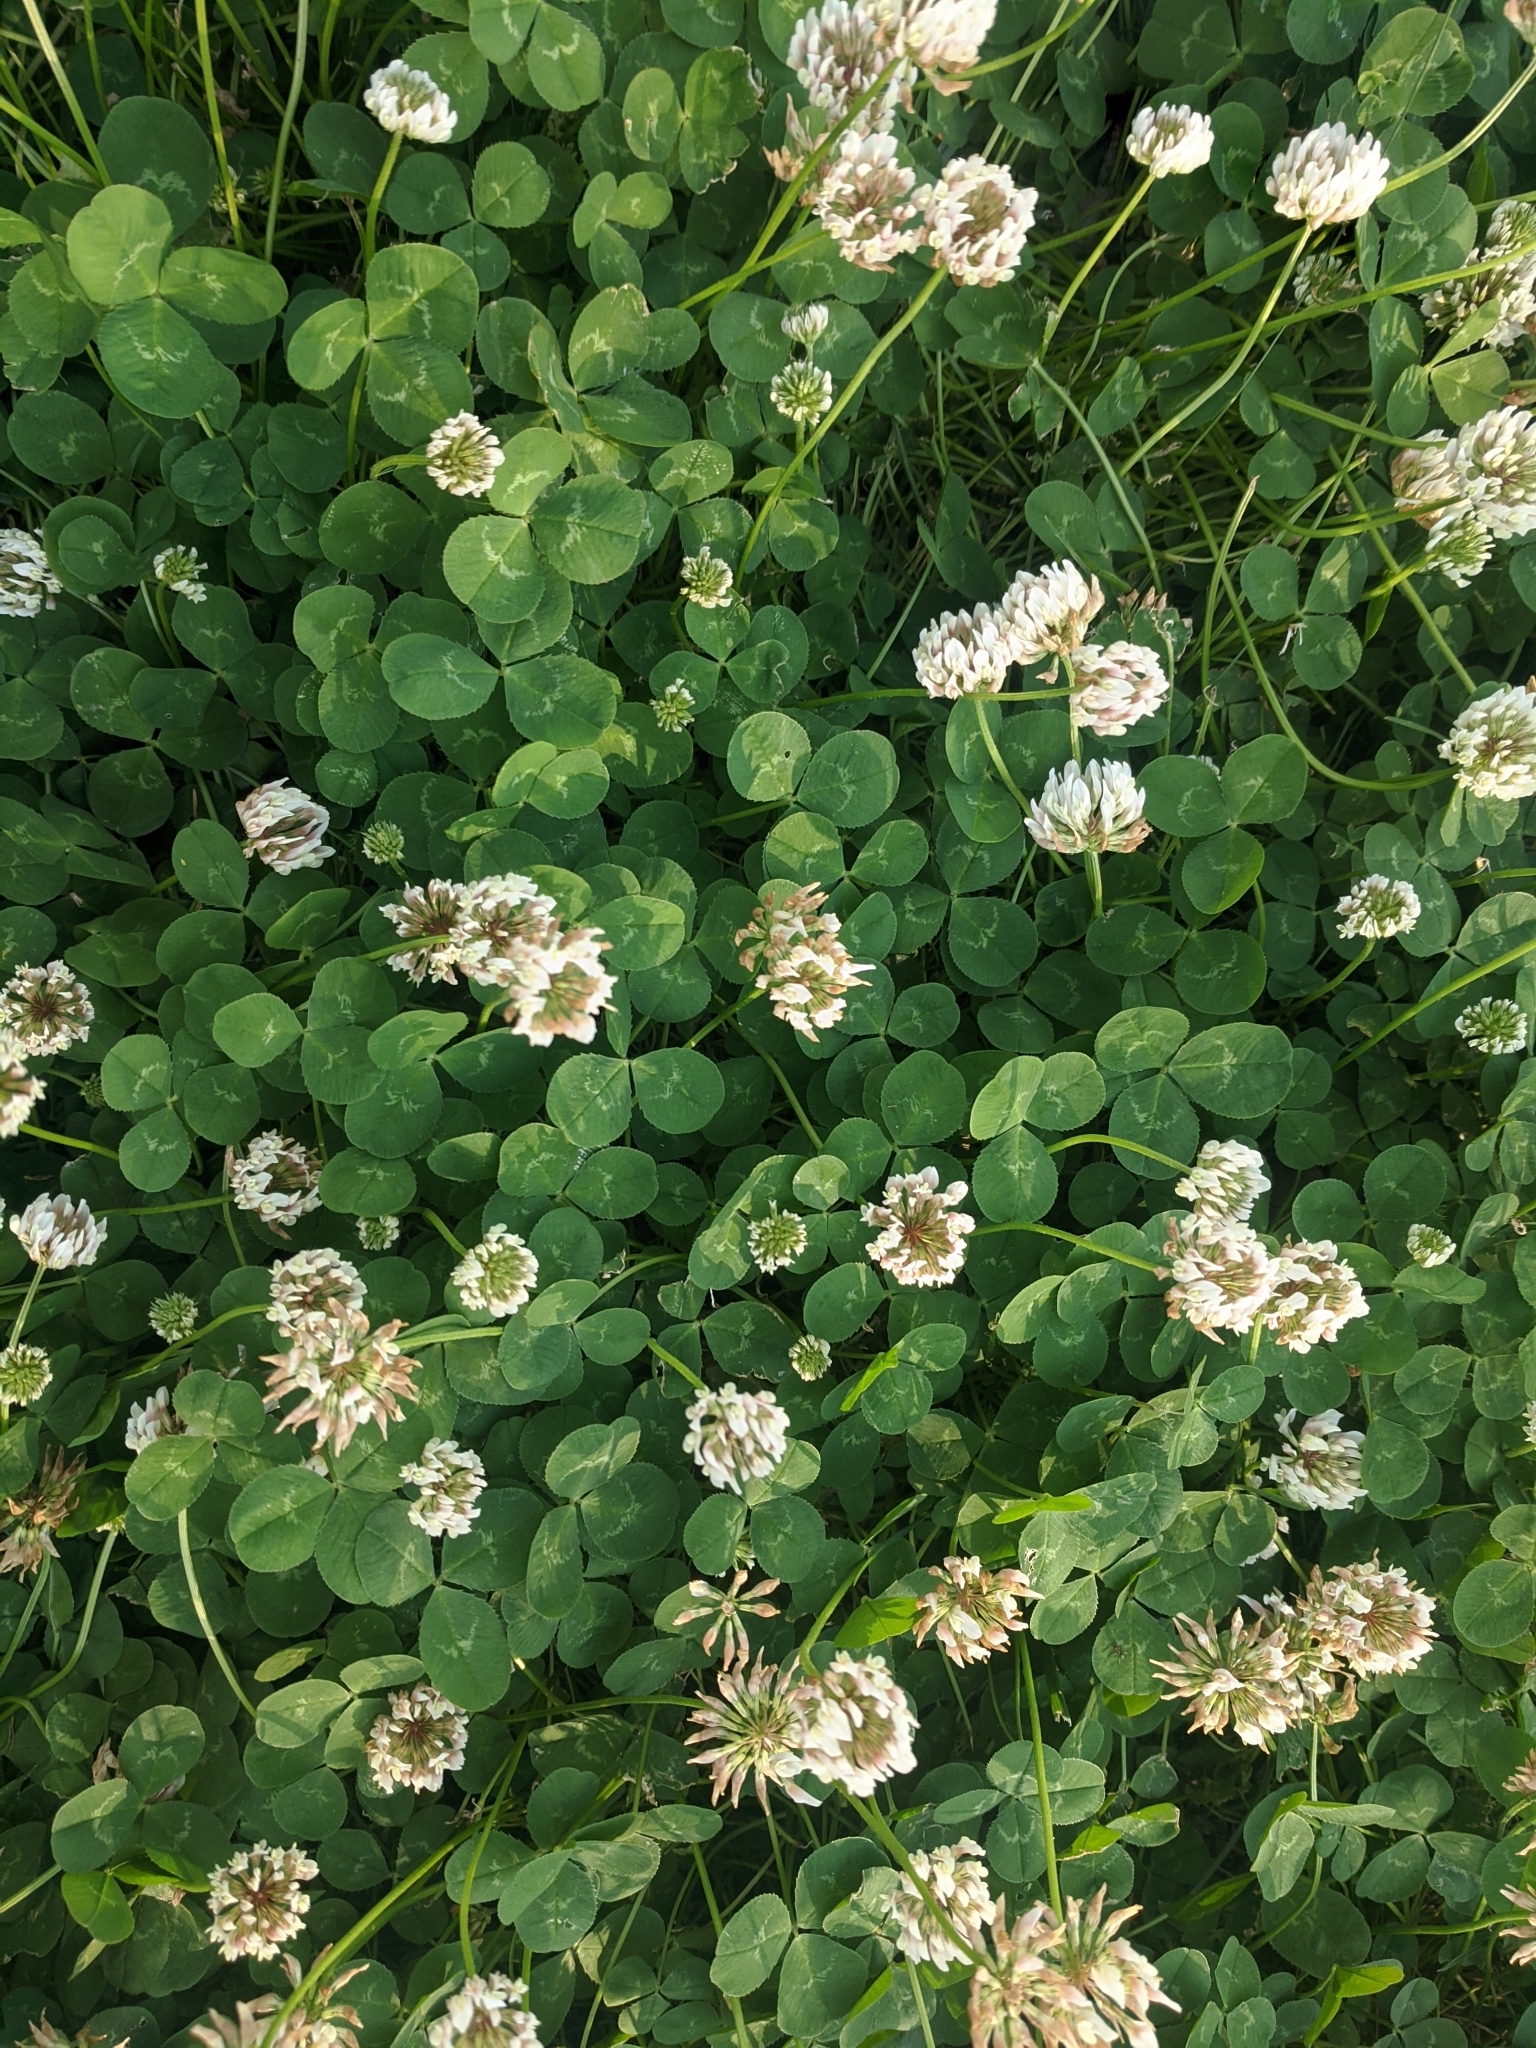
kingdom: Plantae
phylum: Tracheophyta
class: Magnoliopsida
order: Fabales
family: Fabaceae
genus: Trifolium
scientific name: Trifolium repens
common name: White clover
